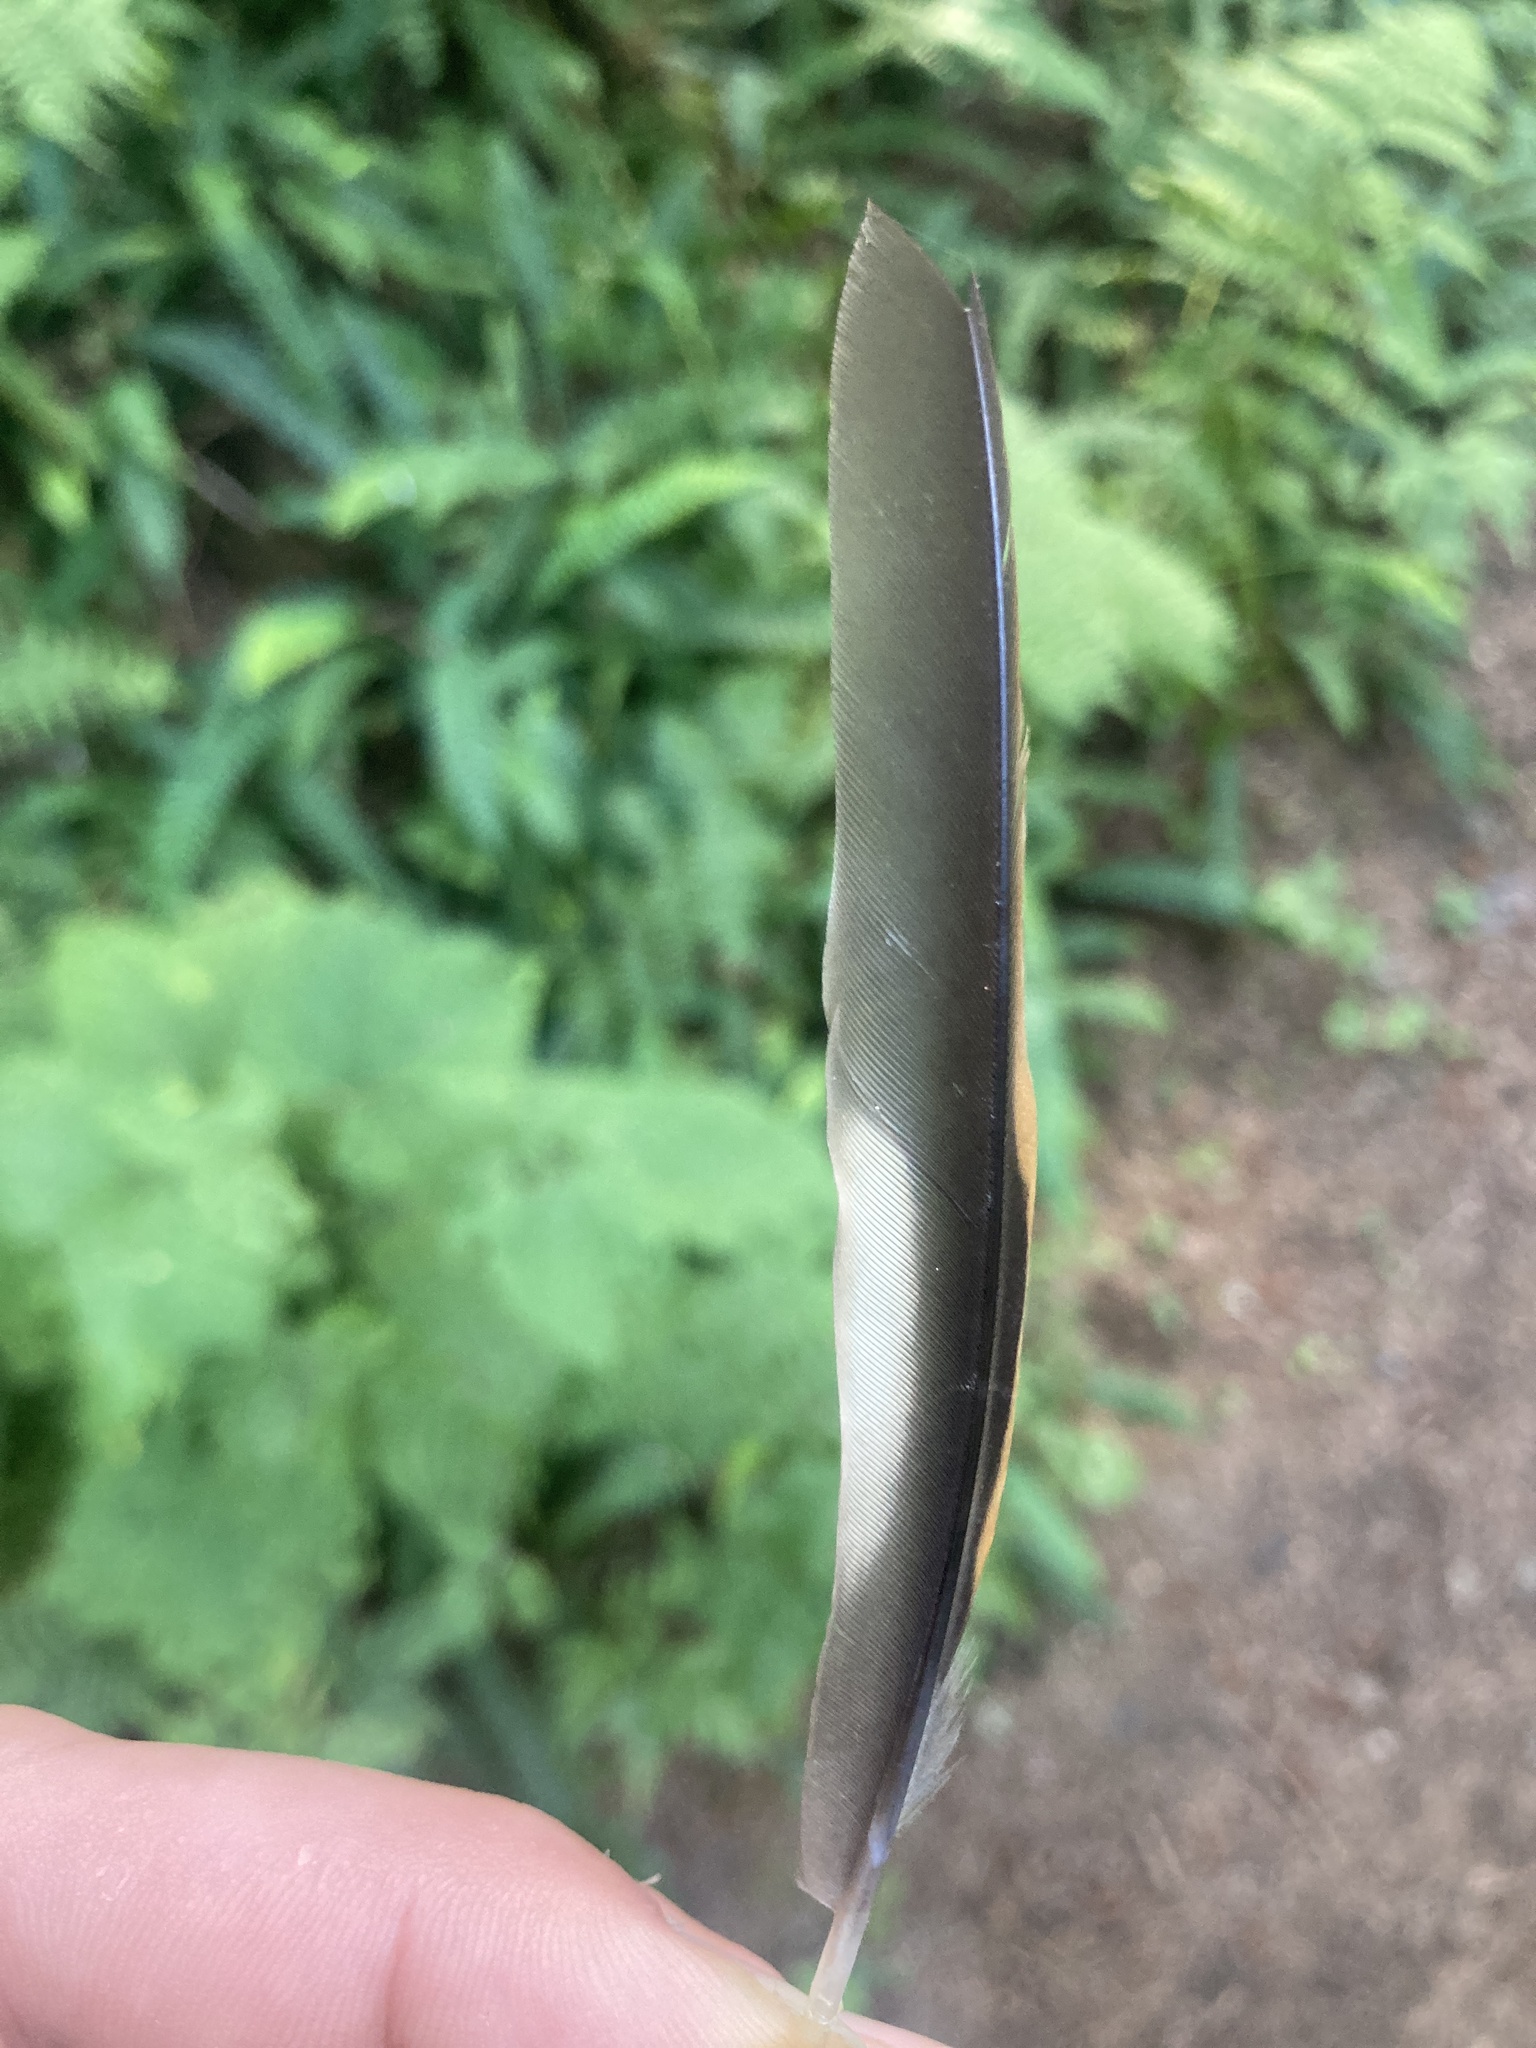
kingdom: Animalia
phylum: Chordata
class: Aves
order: Passeriformes
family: Turdidae
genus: Ixoreus
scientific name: Ixoreus naevius
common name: Varied thrush
